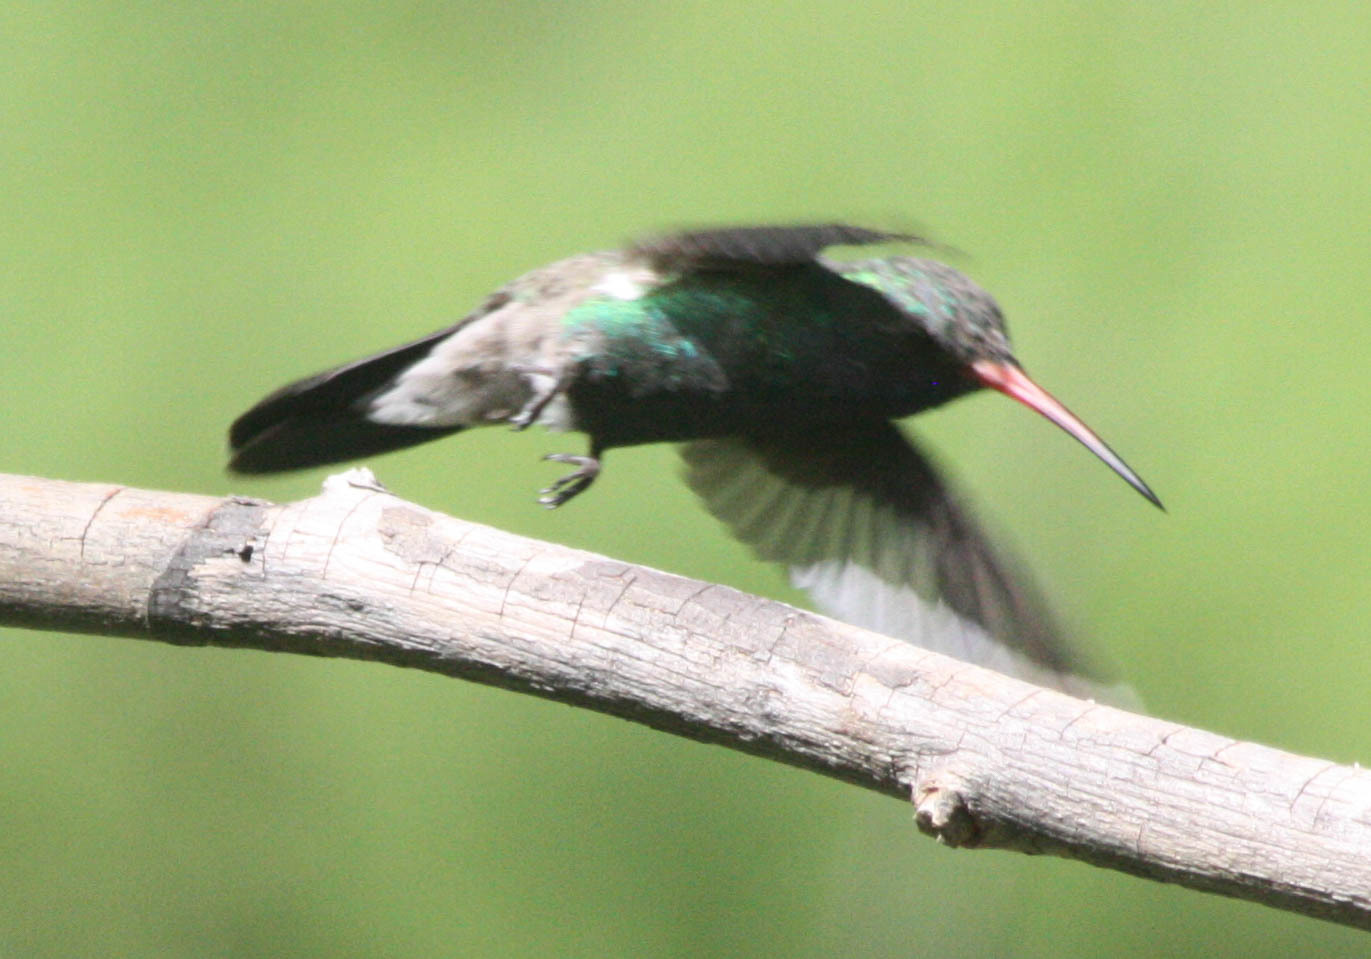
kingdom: Animalia
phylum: Chordata
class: Aves
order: Apodiformes
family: Trochilidae
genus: Cynanthus
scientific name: Cynanthus latirostris
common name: Broad-billed hummingbird
